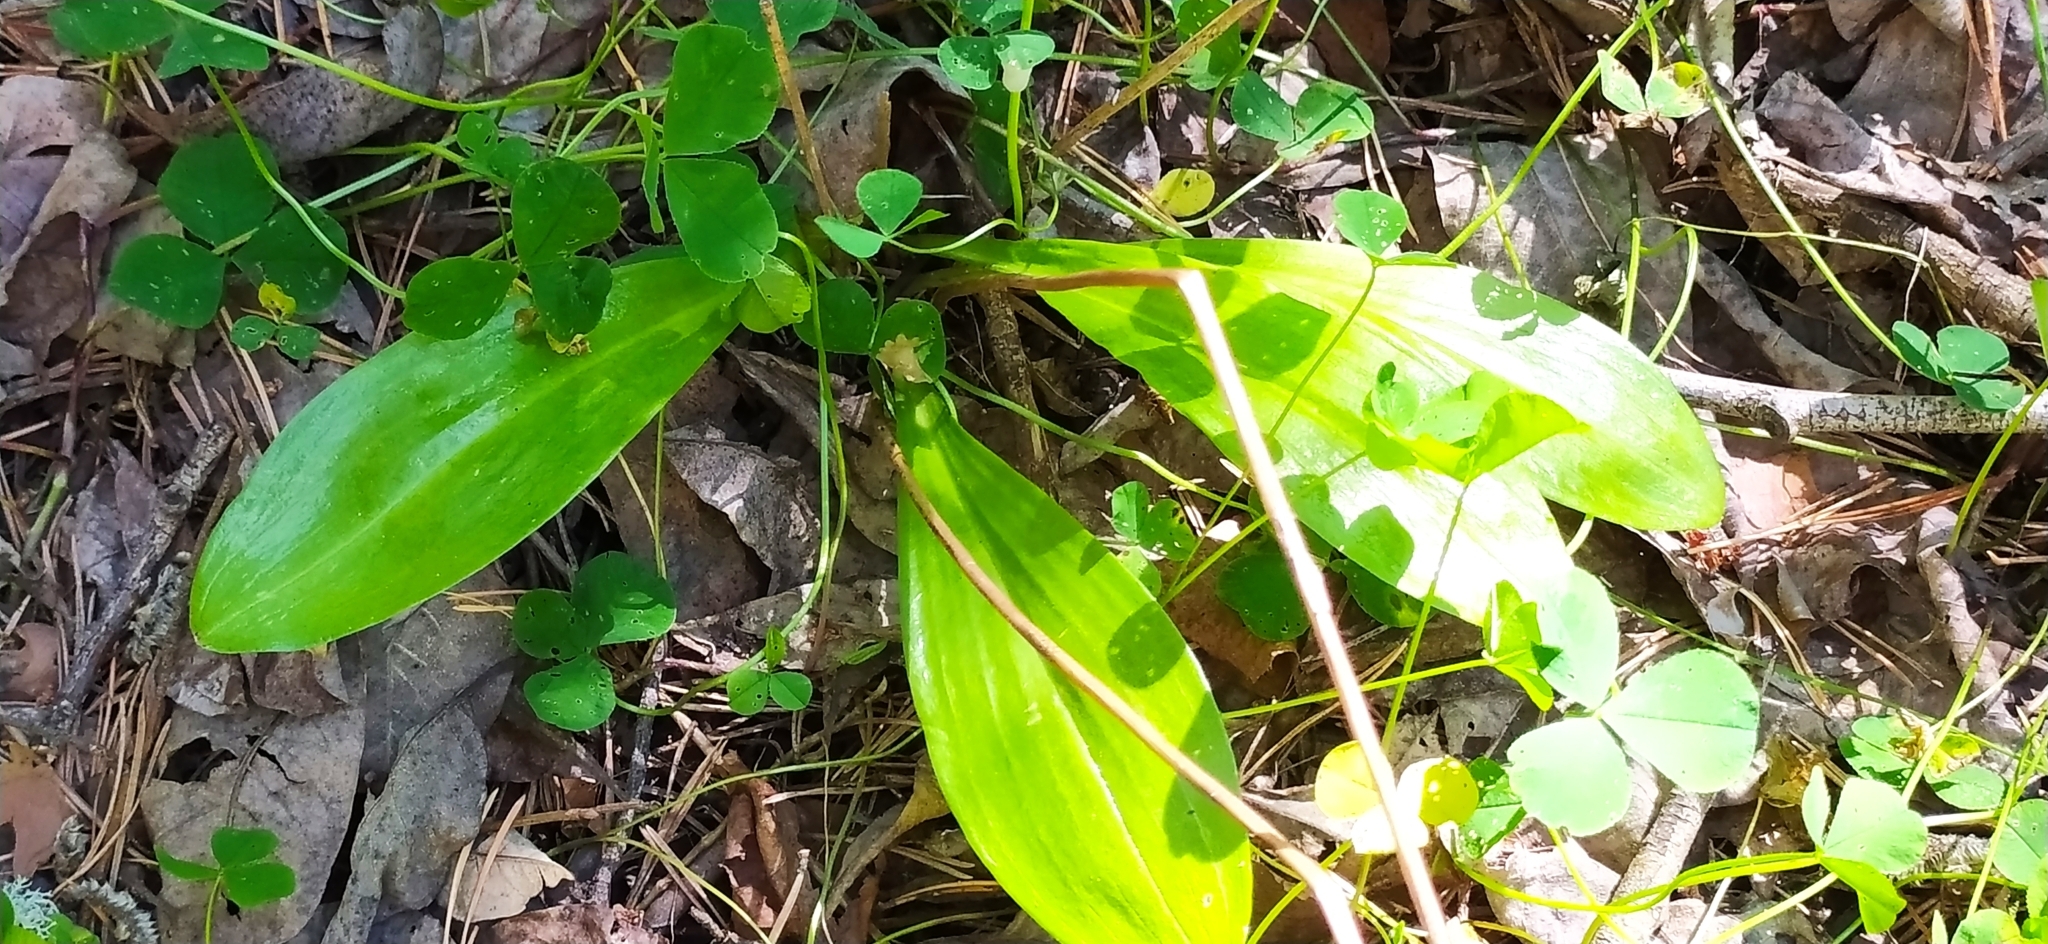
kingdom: Plantae
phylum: Tracheophyta
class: Liliopsida
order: Asparagales
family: Orchidaceae
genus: Platanthera
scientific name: Platanthera bifolia
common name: Lesser butterfly-orchid
